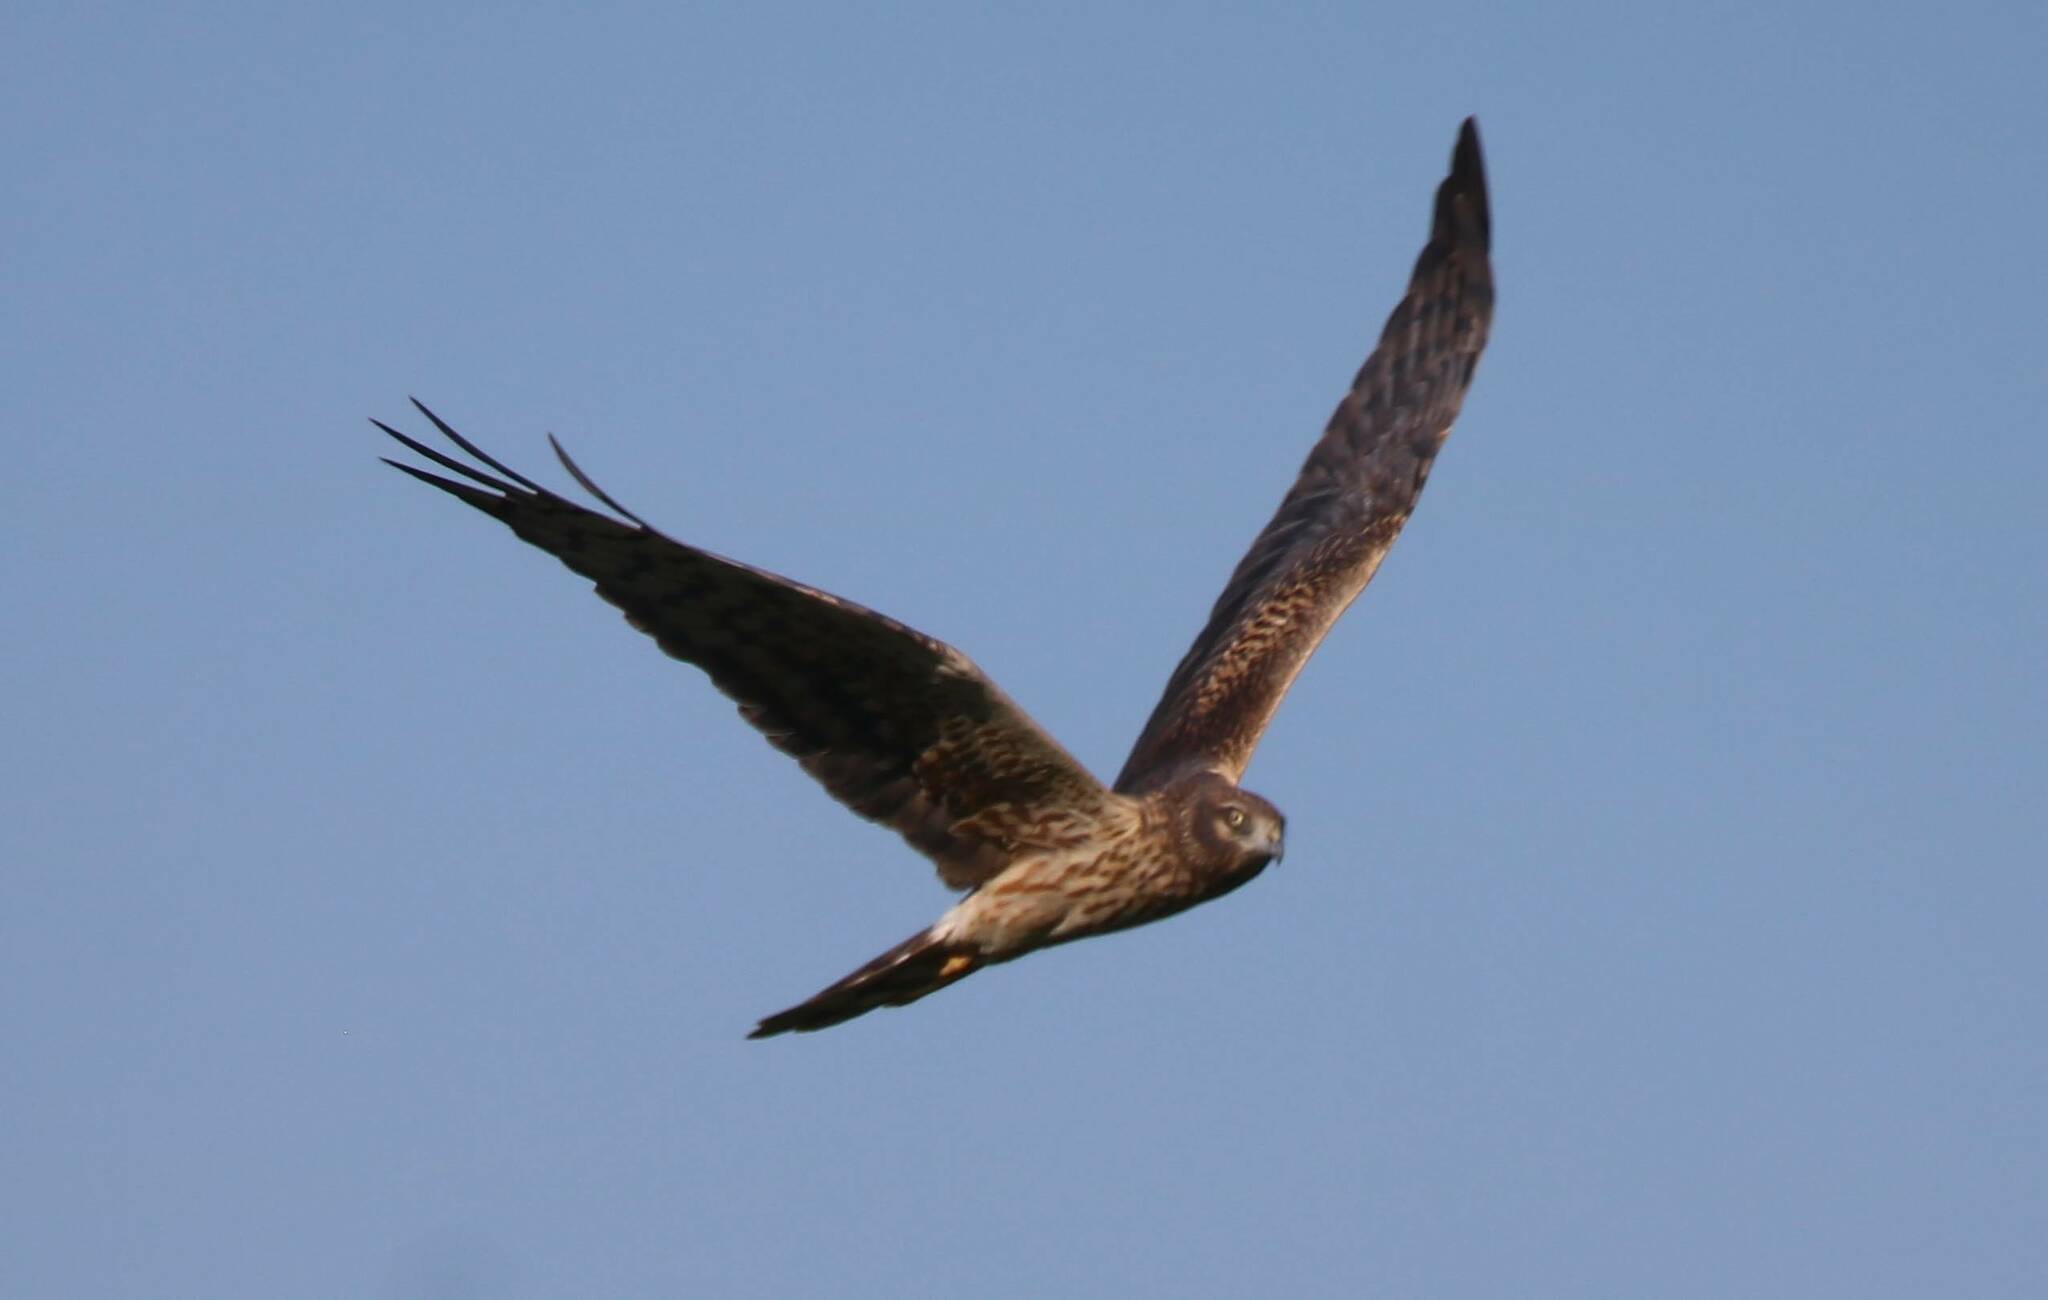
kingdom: Animalia
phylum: Chordata
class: Aves
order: Accipitriformes
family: Accipitridae
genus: Circus
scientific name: Circus pygargus
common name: Montagu's harrier
